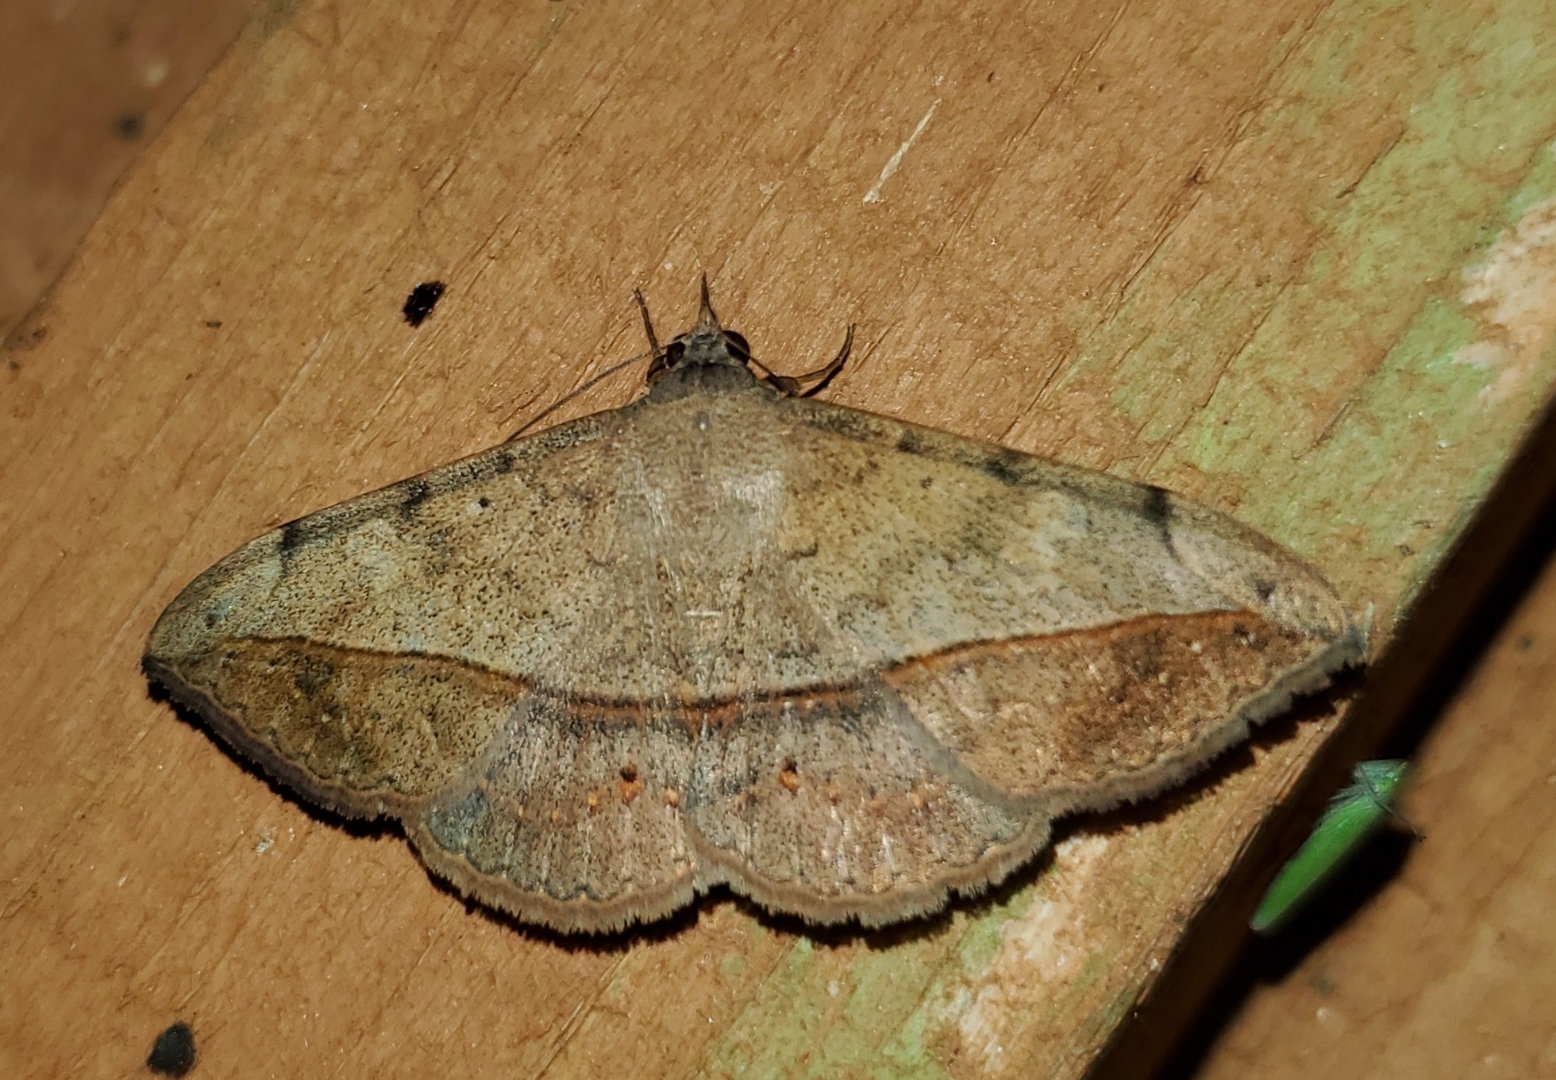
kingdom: Animalia
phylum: Arthropoda
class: Insecta
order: Lepidoptera
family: Erebidae
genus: Anticarsia
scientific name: Anticarsia gemmatalis
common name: Cutworm moth
